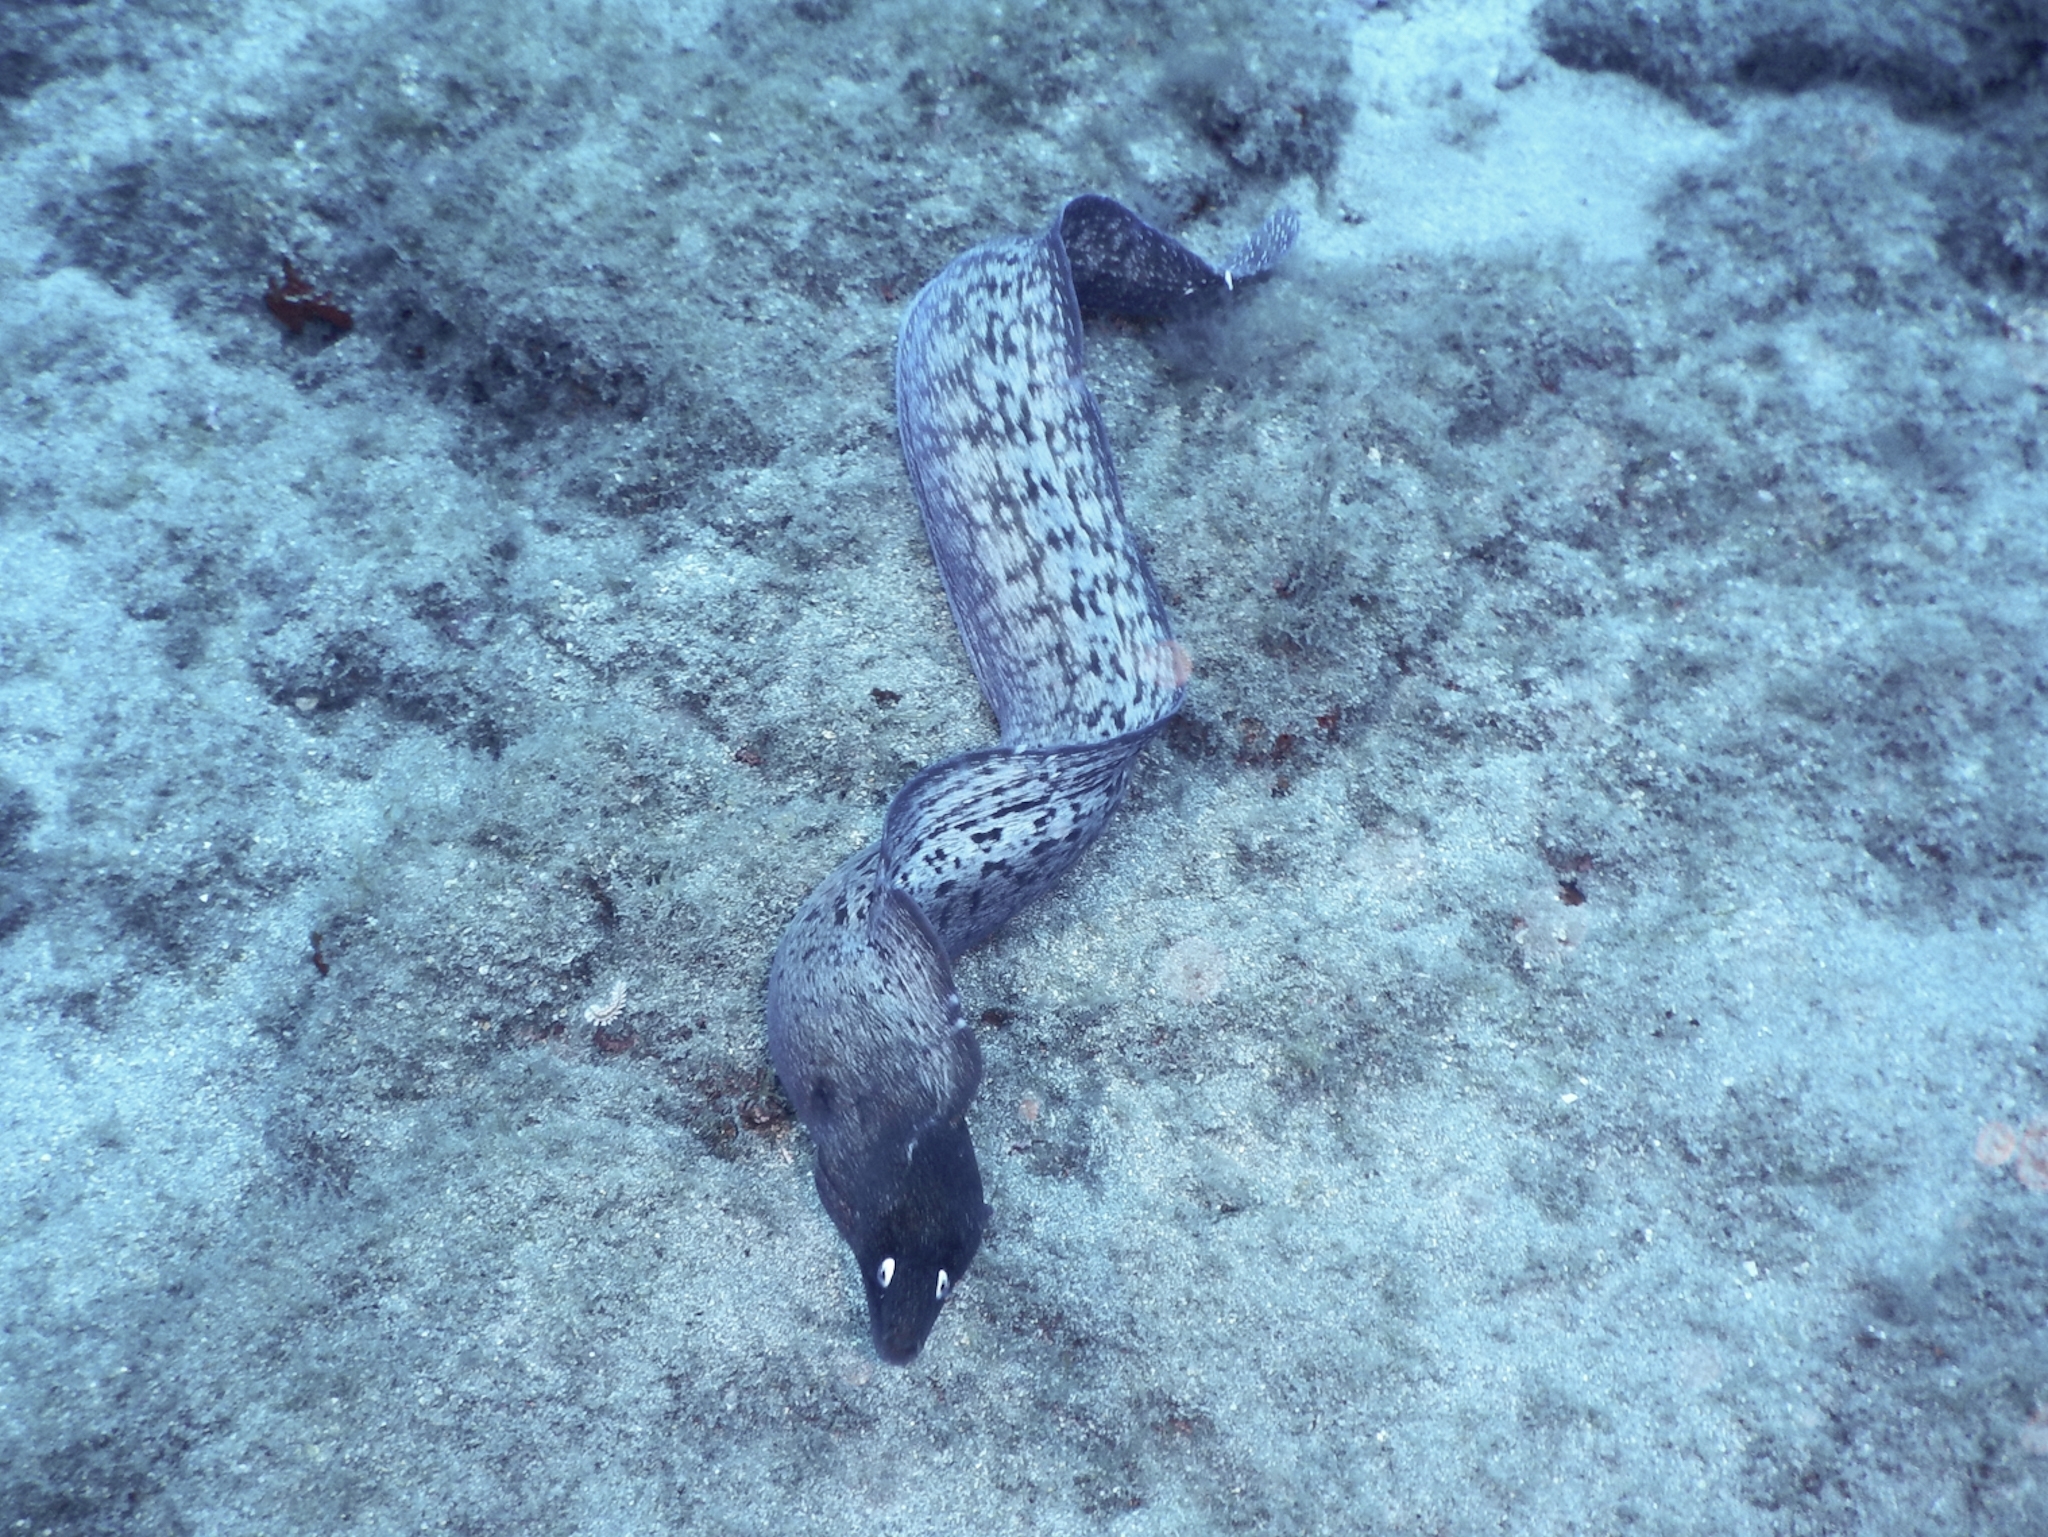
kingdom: Animalia
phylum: Chordata
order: Anguilliformes
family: Muraenidae
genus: Muraena
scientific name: Muraena augusti
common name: Mediterranean moray
